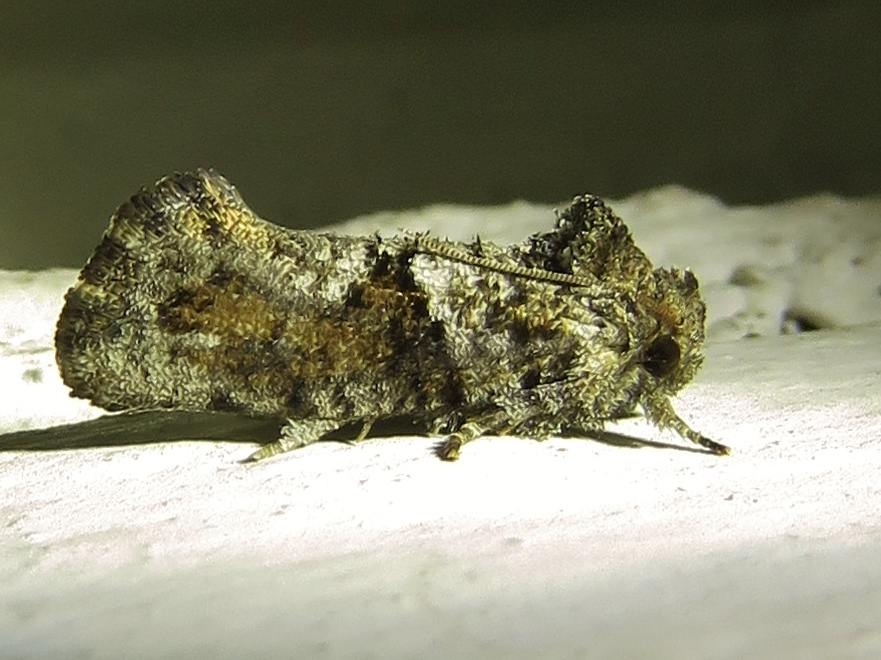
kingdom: Animalia
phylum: Arthropoda
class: Insecta
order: Lepidoptera
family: Tineidae
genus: Acrolophus
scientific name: Acrolophus piger
